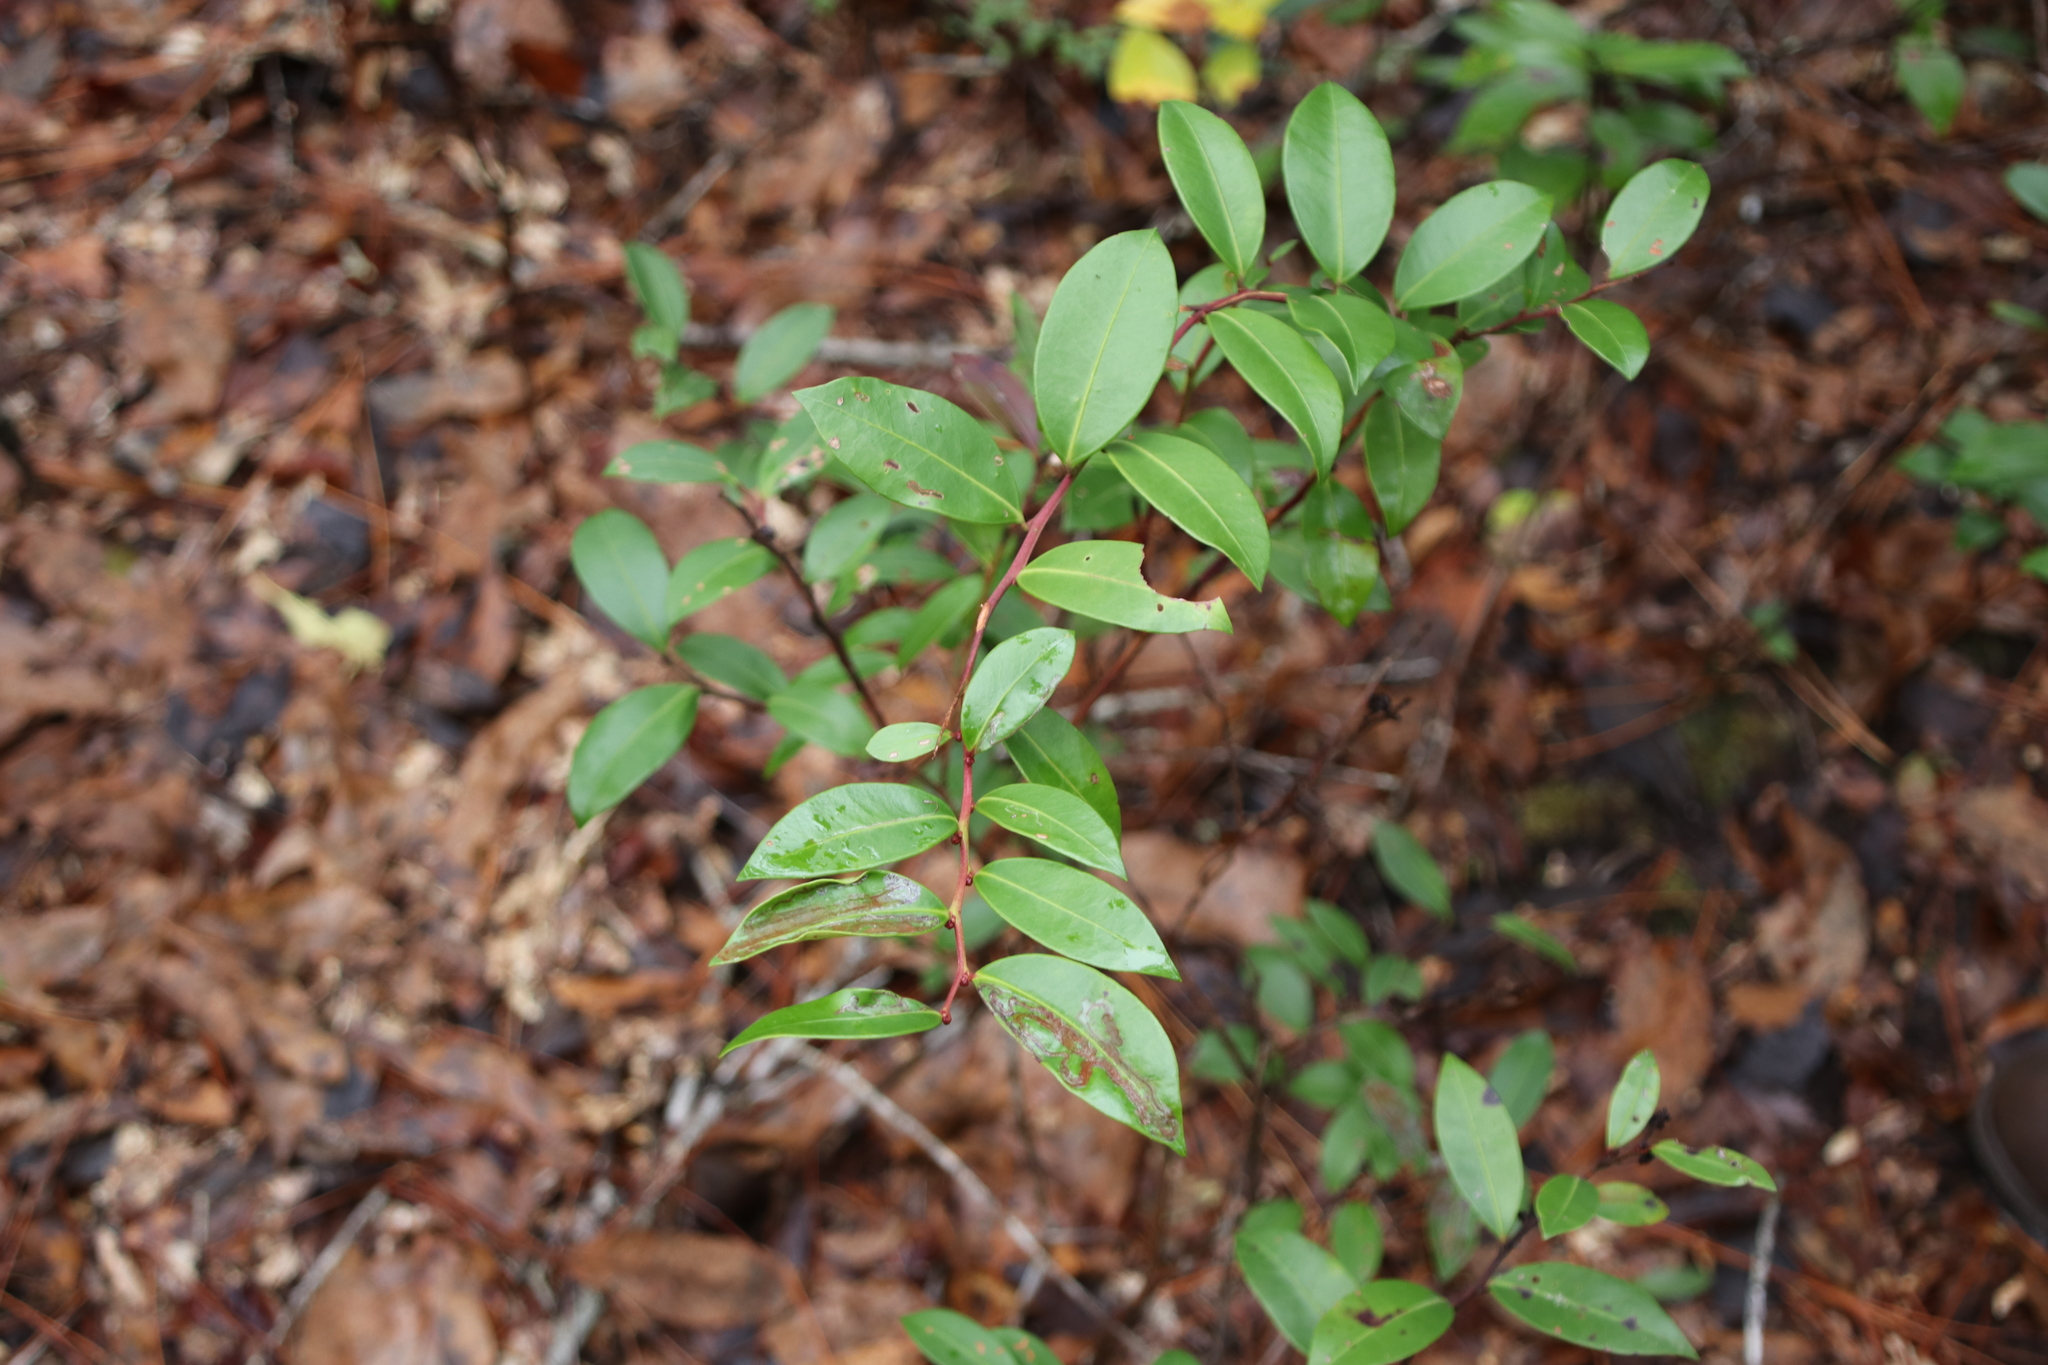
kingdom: Plantae
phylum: Tracheophyta
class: Magnoliopsida
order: Ericales
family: Ericaceae
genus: Lyonia
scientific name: Lyonia lucida
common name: Fetterbush
